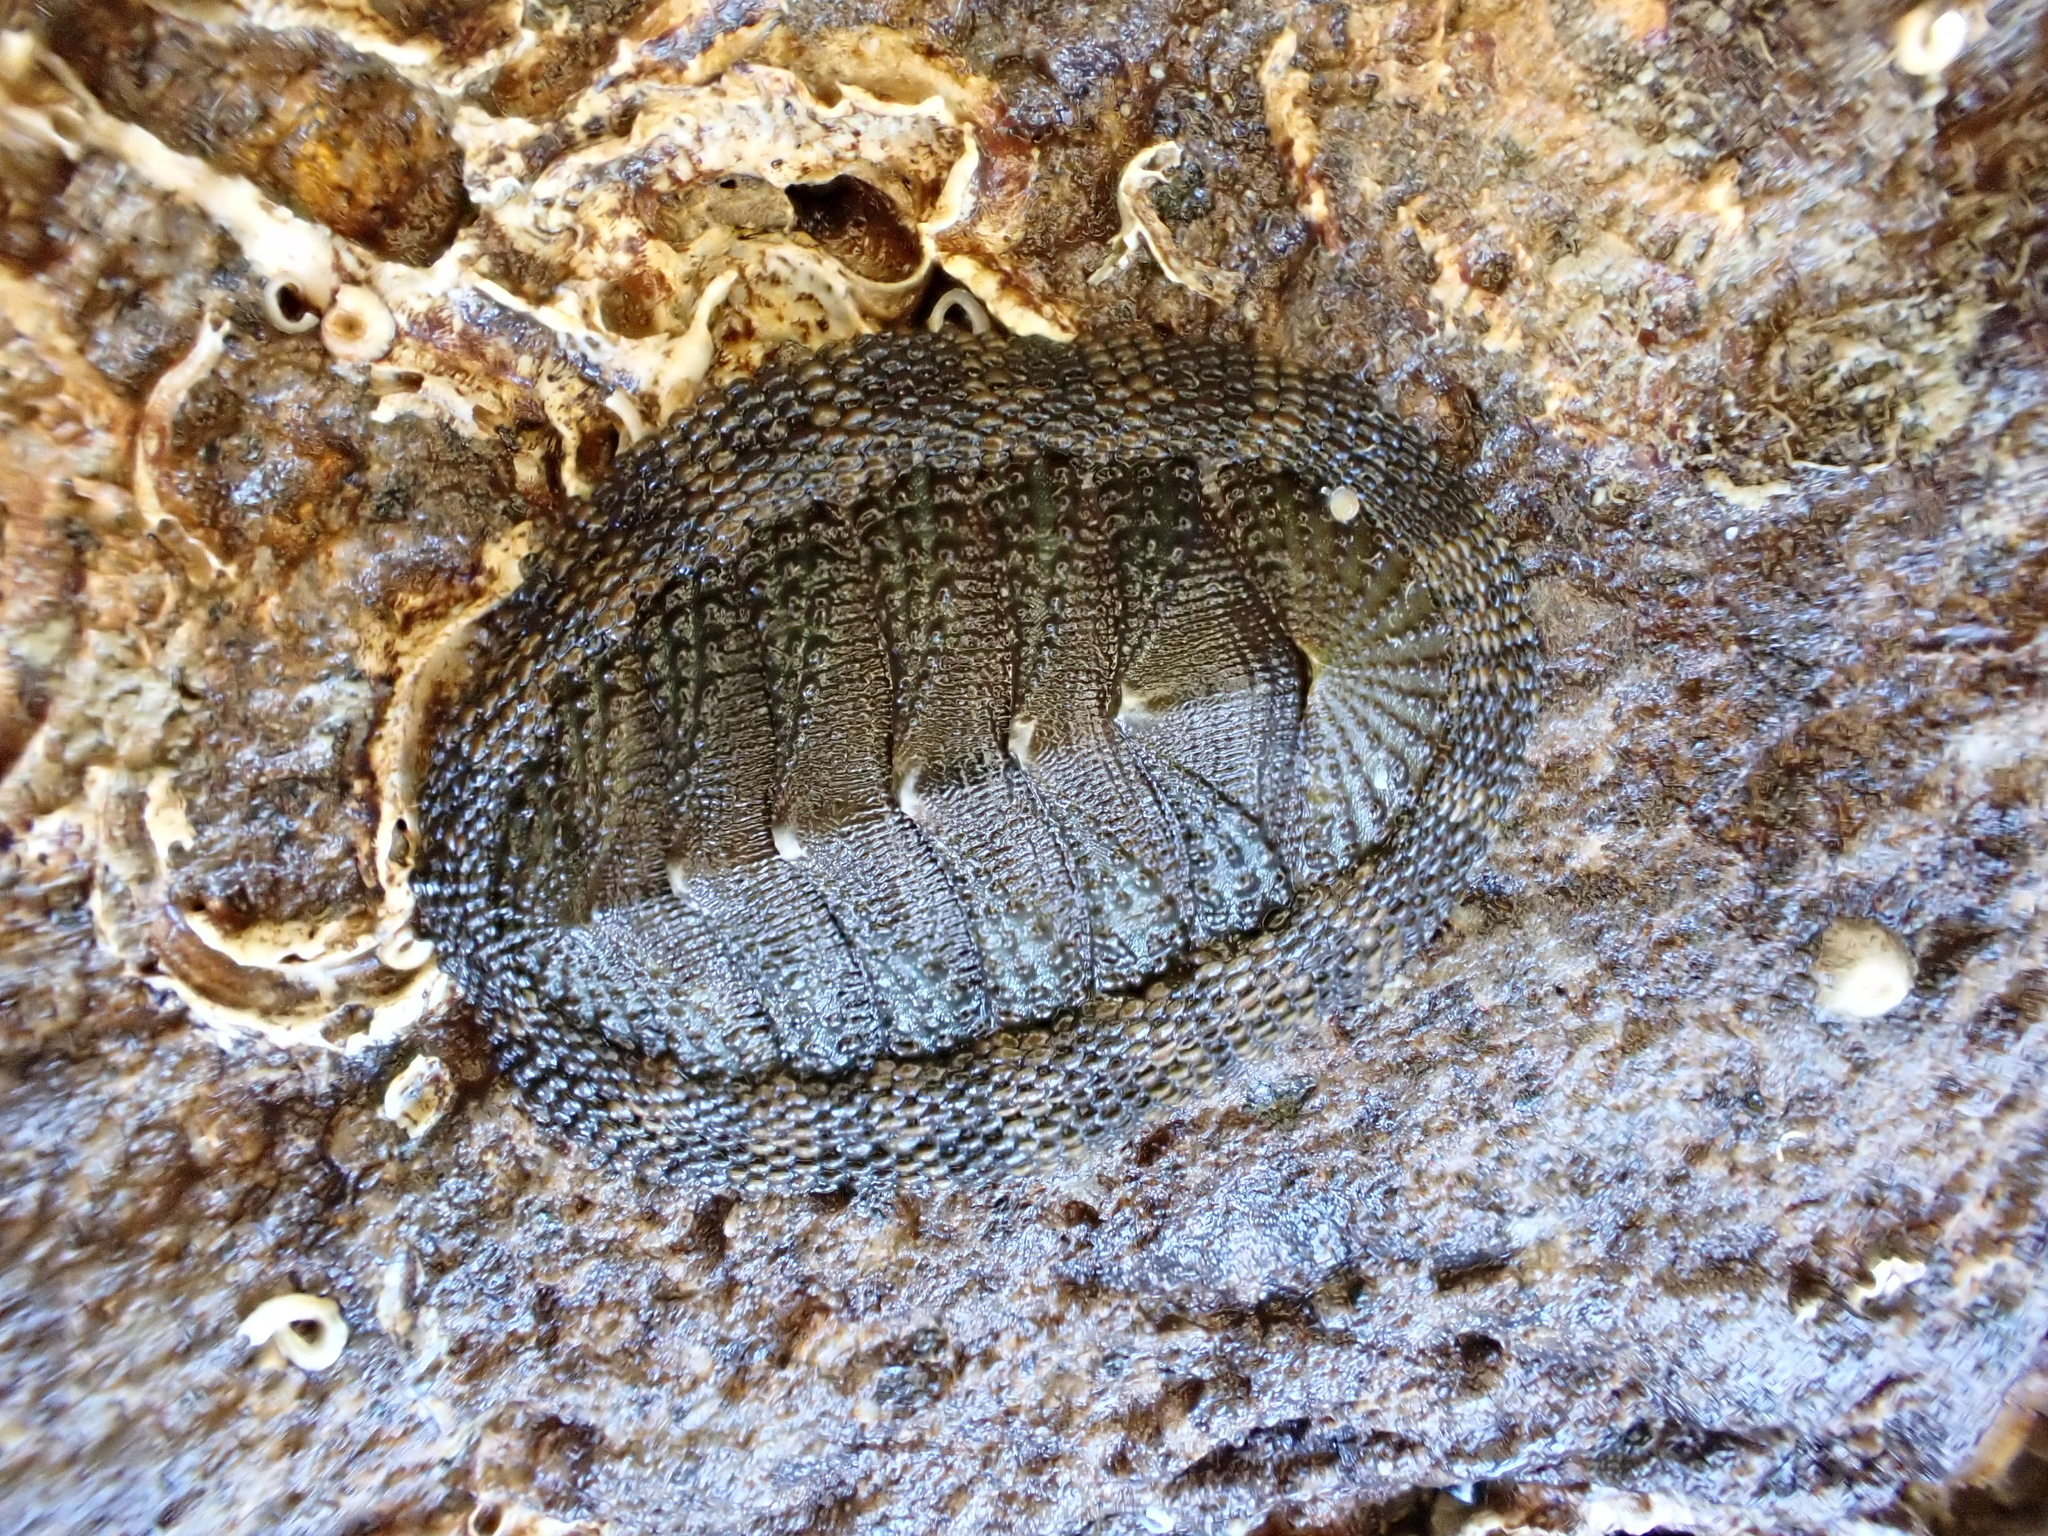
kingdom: Animalia
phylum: Mollusca
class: Polyplacophora
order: Chitonida
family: Chitonidae
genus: Sypharochiton
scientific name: Sypharochiton pelliserpentis
